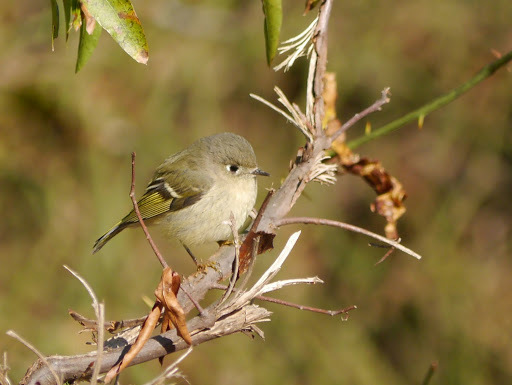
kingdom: Animalia
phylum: Chordata
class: Aves
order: Passeriformes
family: Regulidae
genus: Regulus
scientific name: Regulus calendula
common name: Ruby-crowned kinglet
